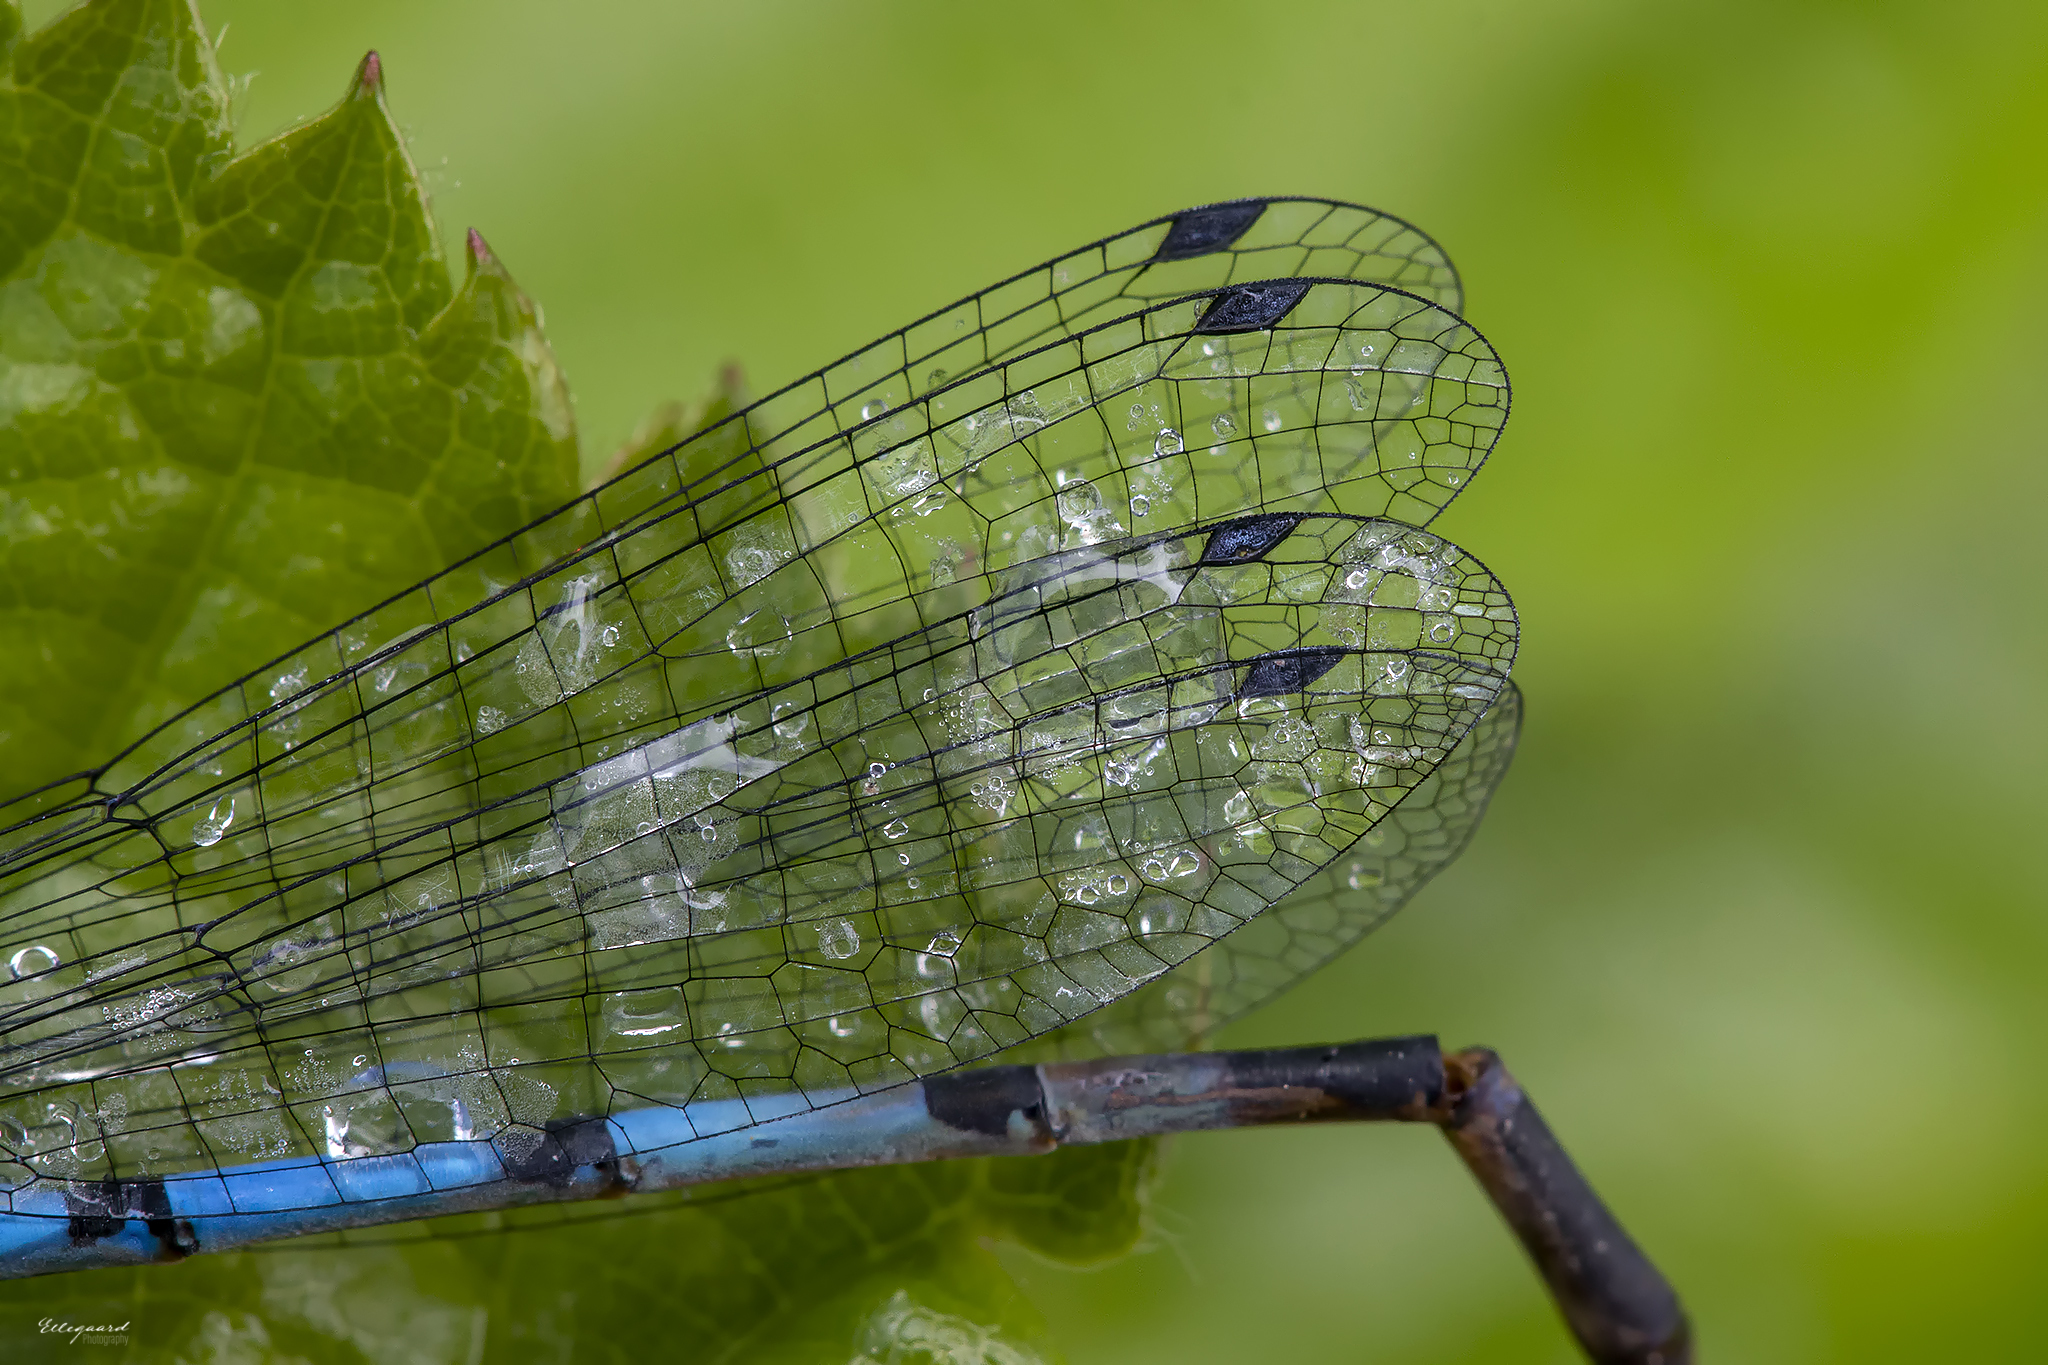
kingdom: Animalia
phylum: Arthropoda
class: Insecta
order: Odonata
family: Coenagrionidae
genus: Enallagma
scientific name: Enallagma cyathigerum
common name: Common blue damselfly
